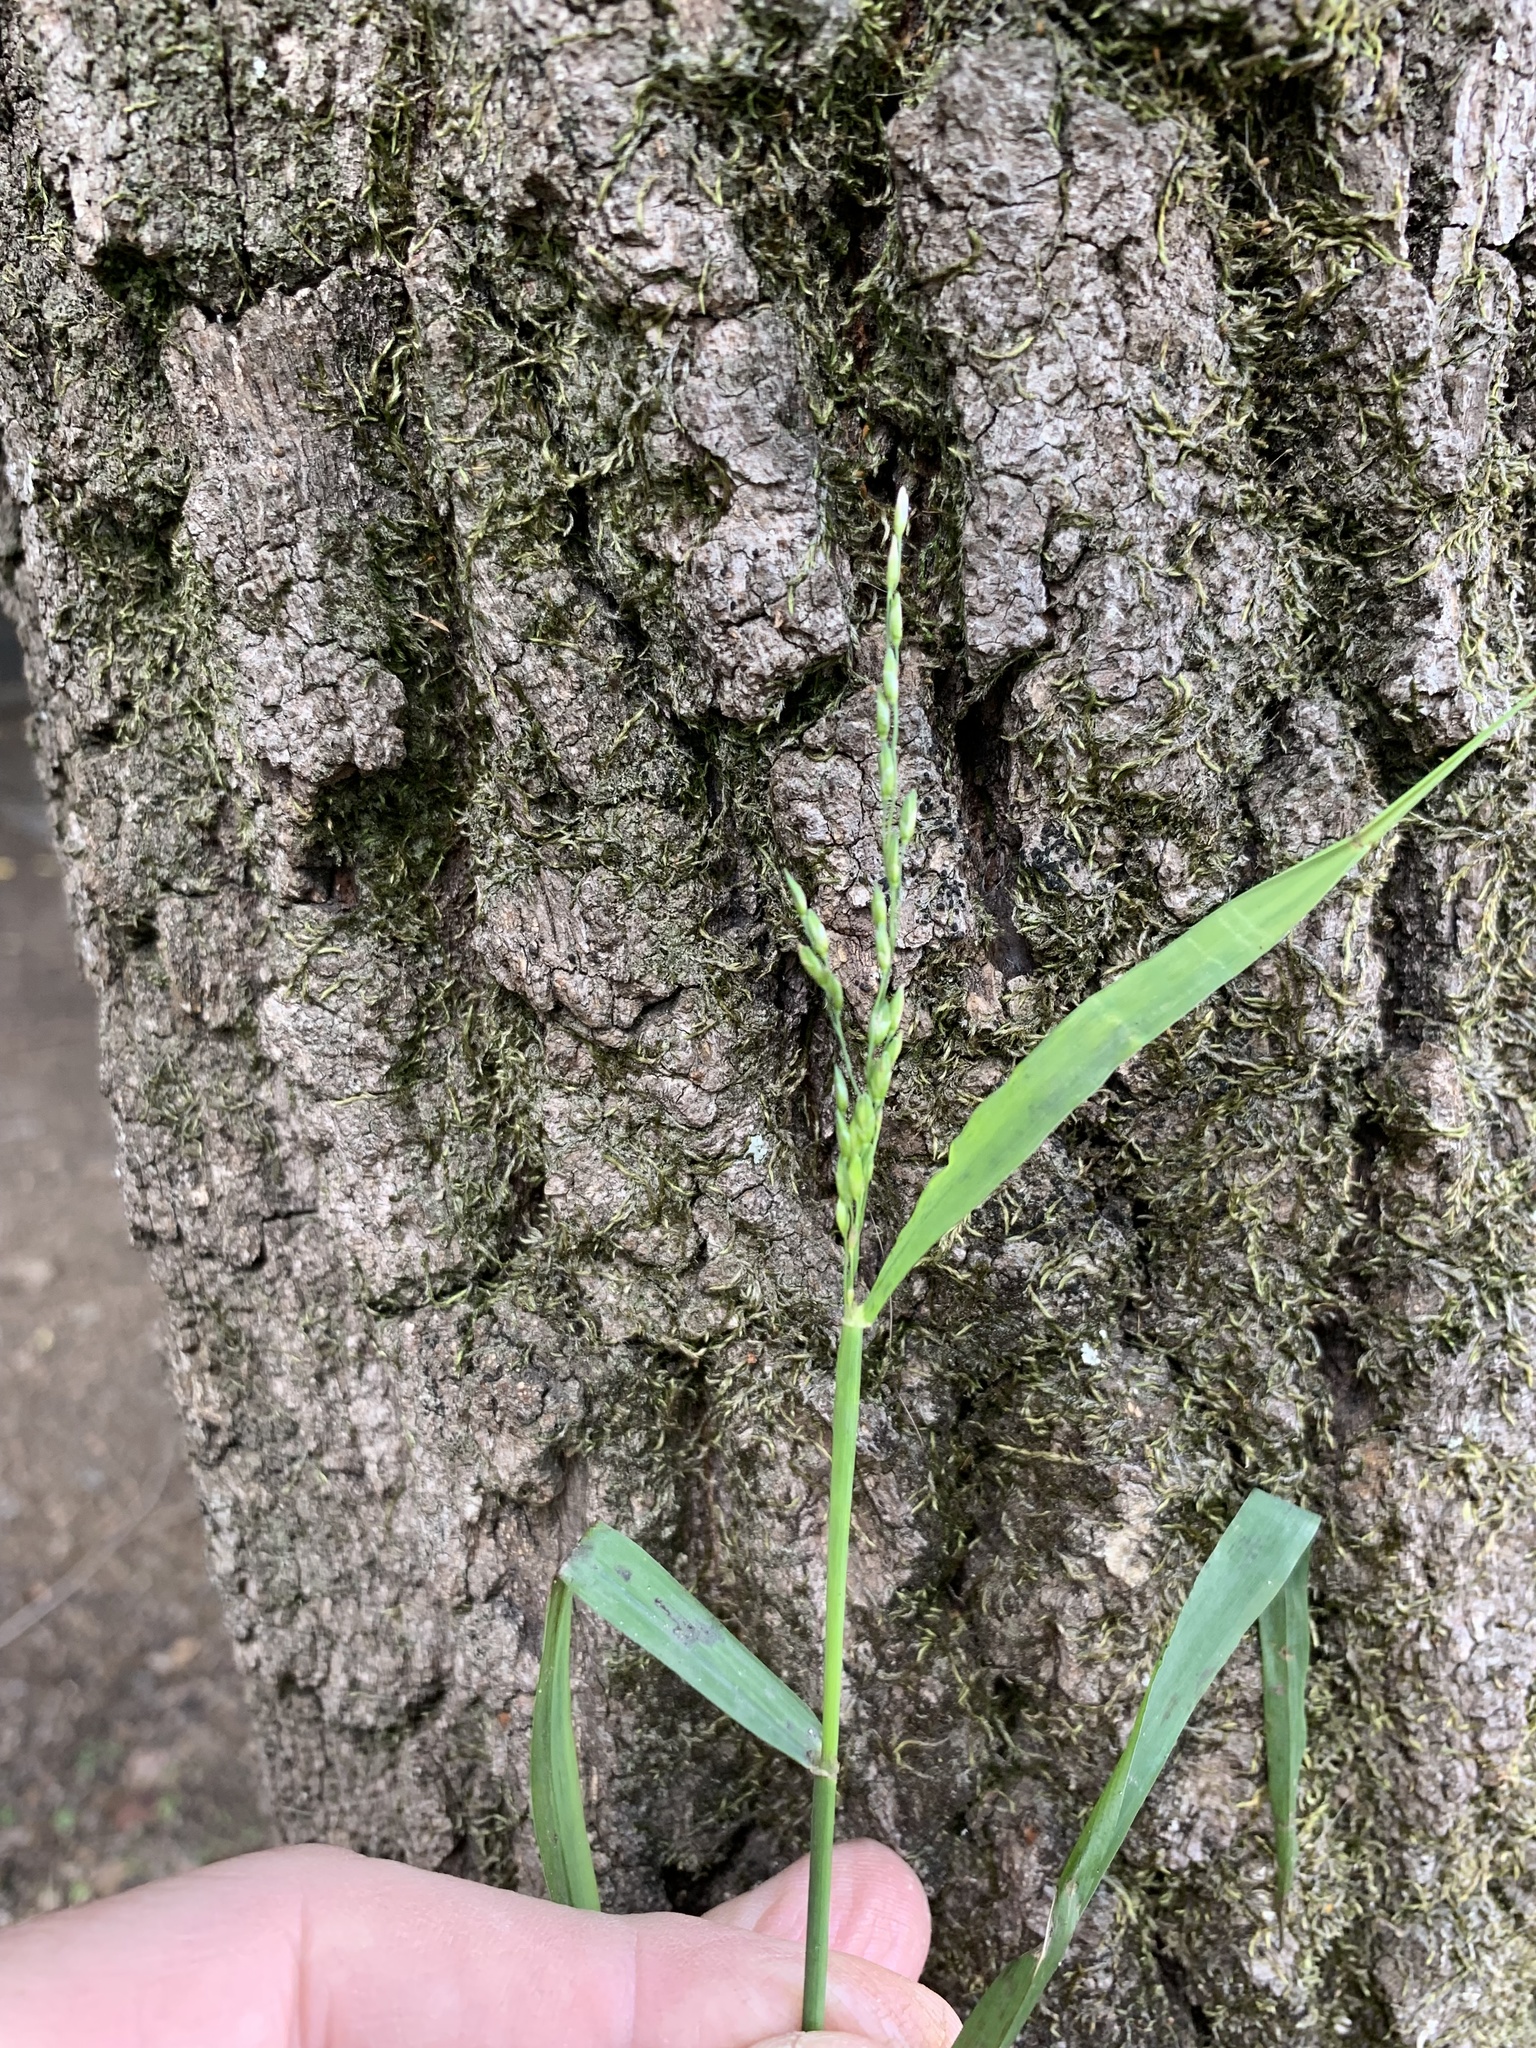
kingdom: Plantae
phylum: Tracheophyta
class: Liliopsida
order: Poales
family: Poaceae
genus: Ehrharta
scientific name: Ehrharta erecta
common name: Panic veldtgrass
